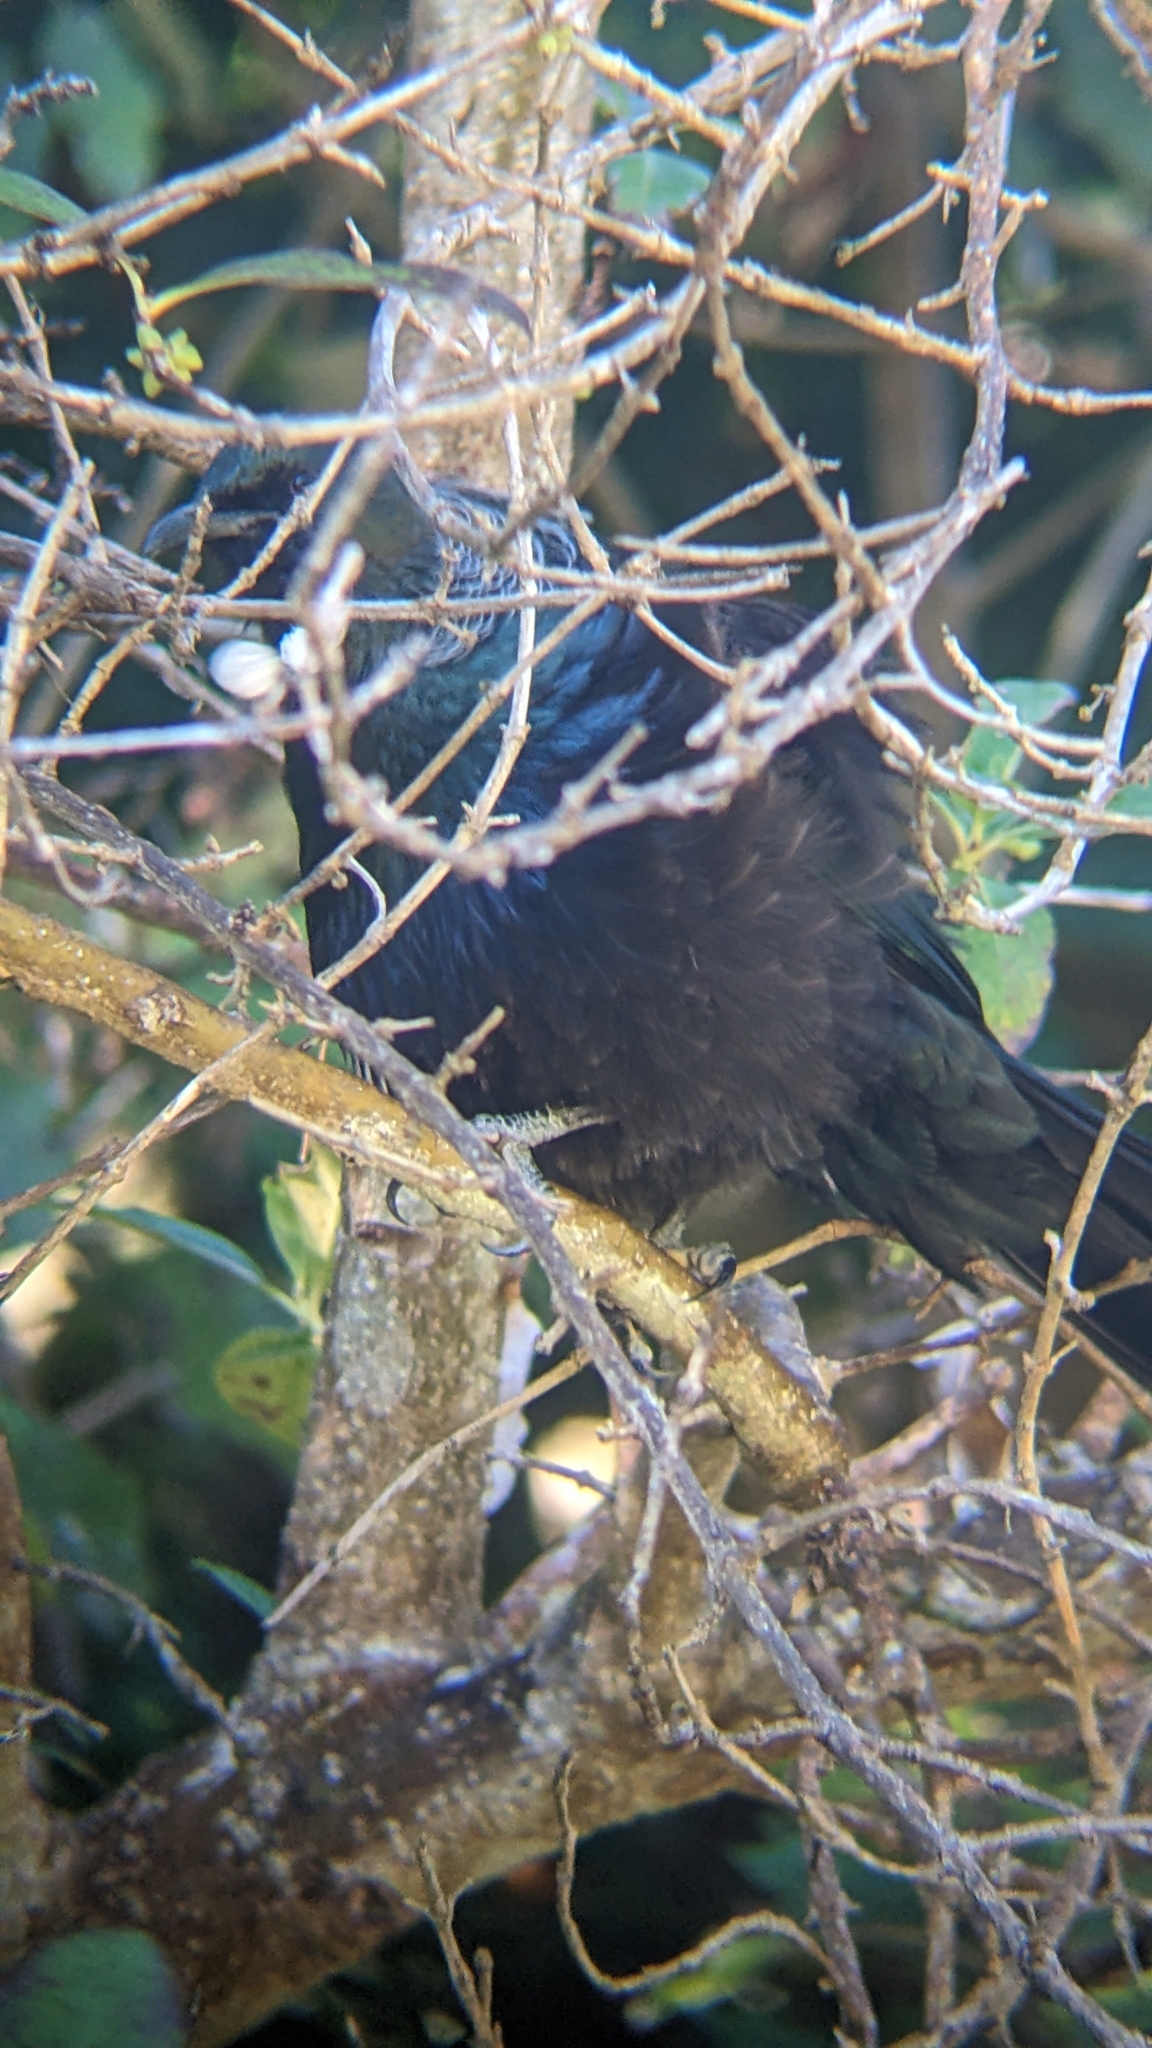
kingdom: Animalia
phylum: Chordata
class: Aves
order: Passeriformes
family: Meliphagidae
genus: Prosthemadera
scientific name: Prosthemadera novaeseelandiae
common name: Tui
